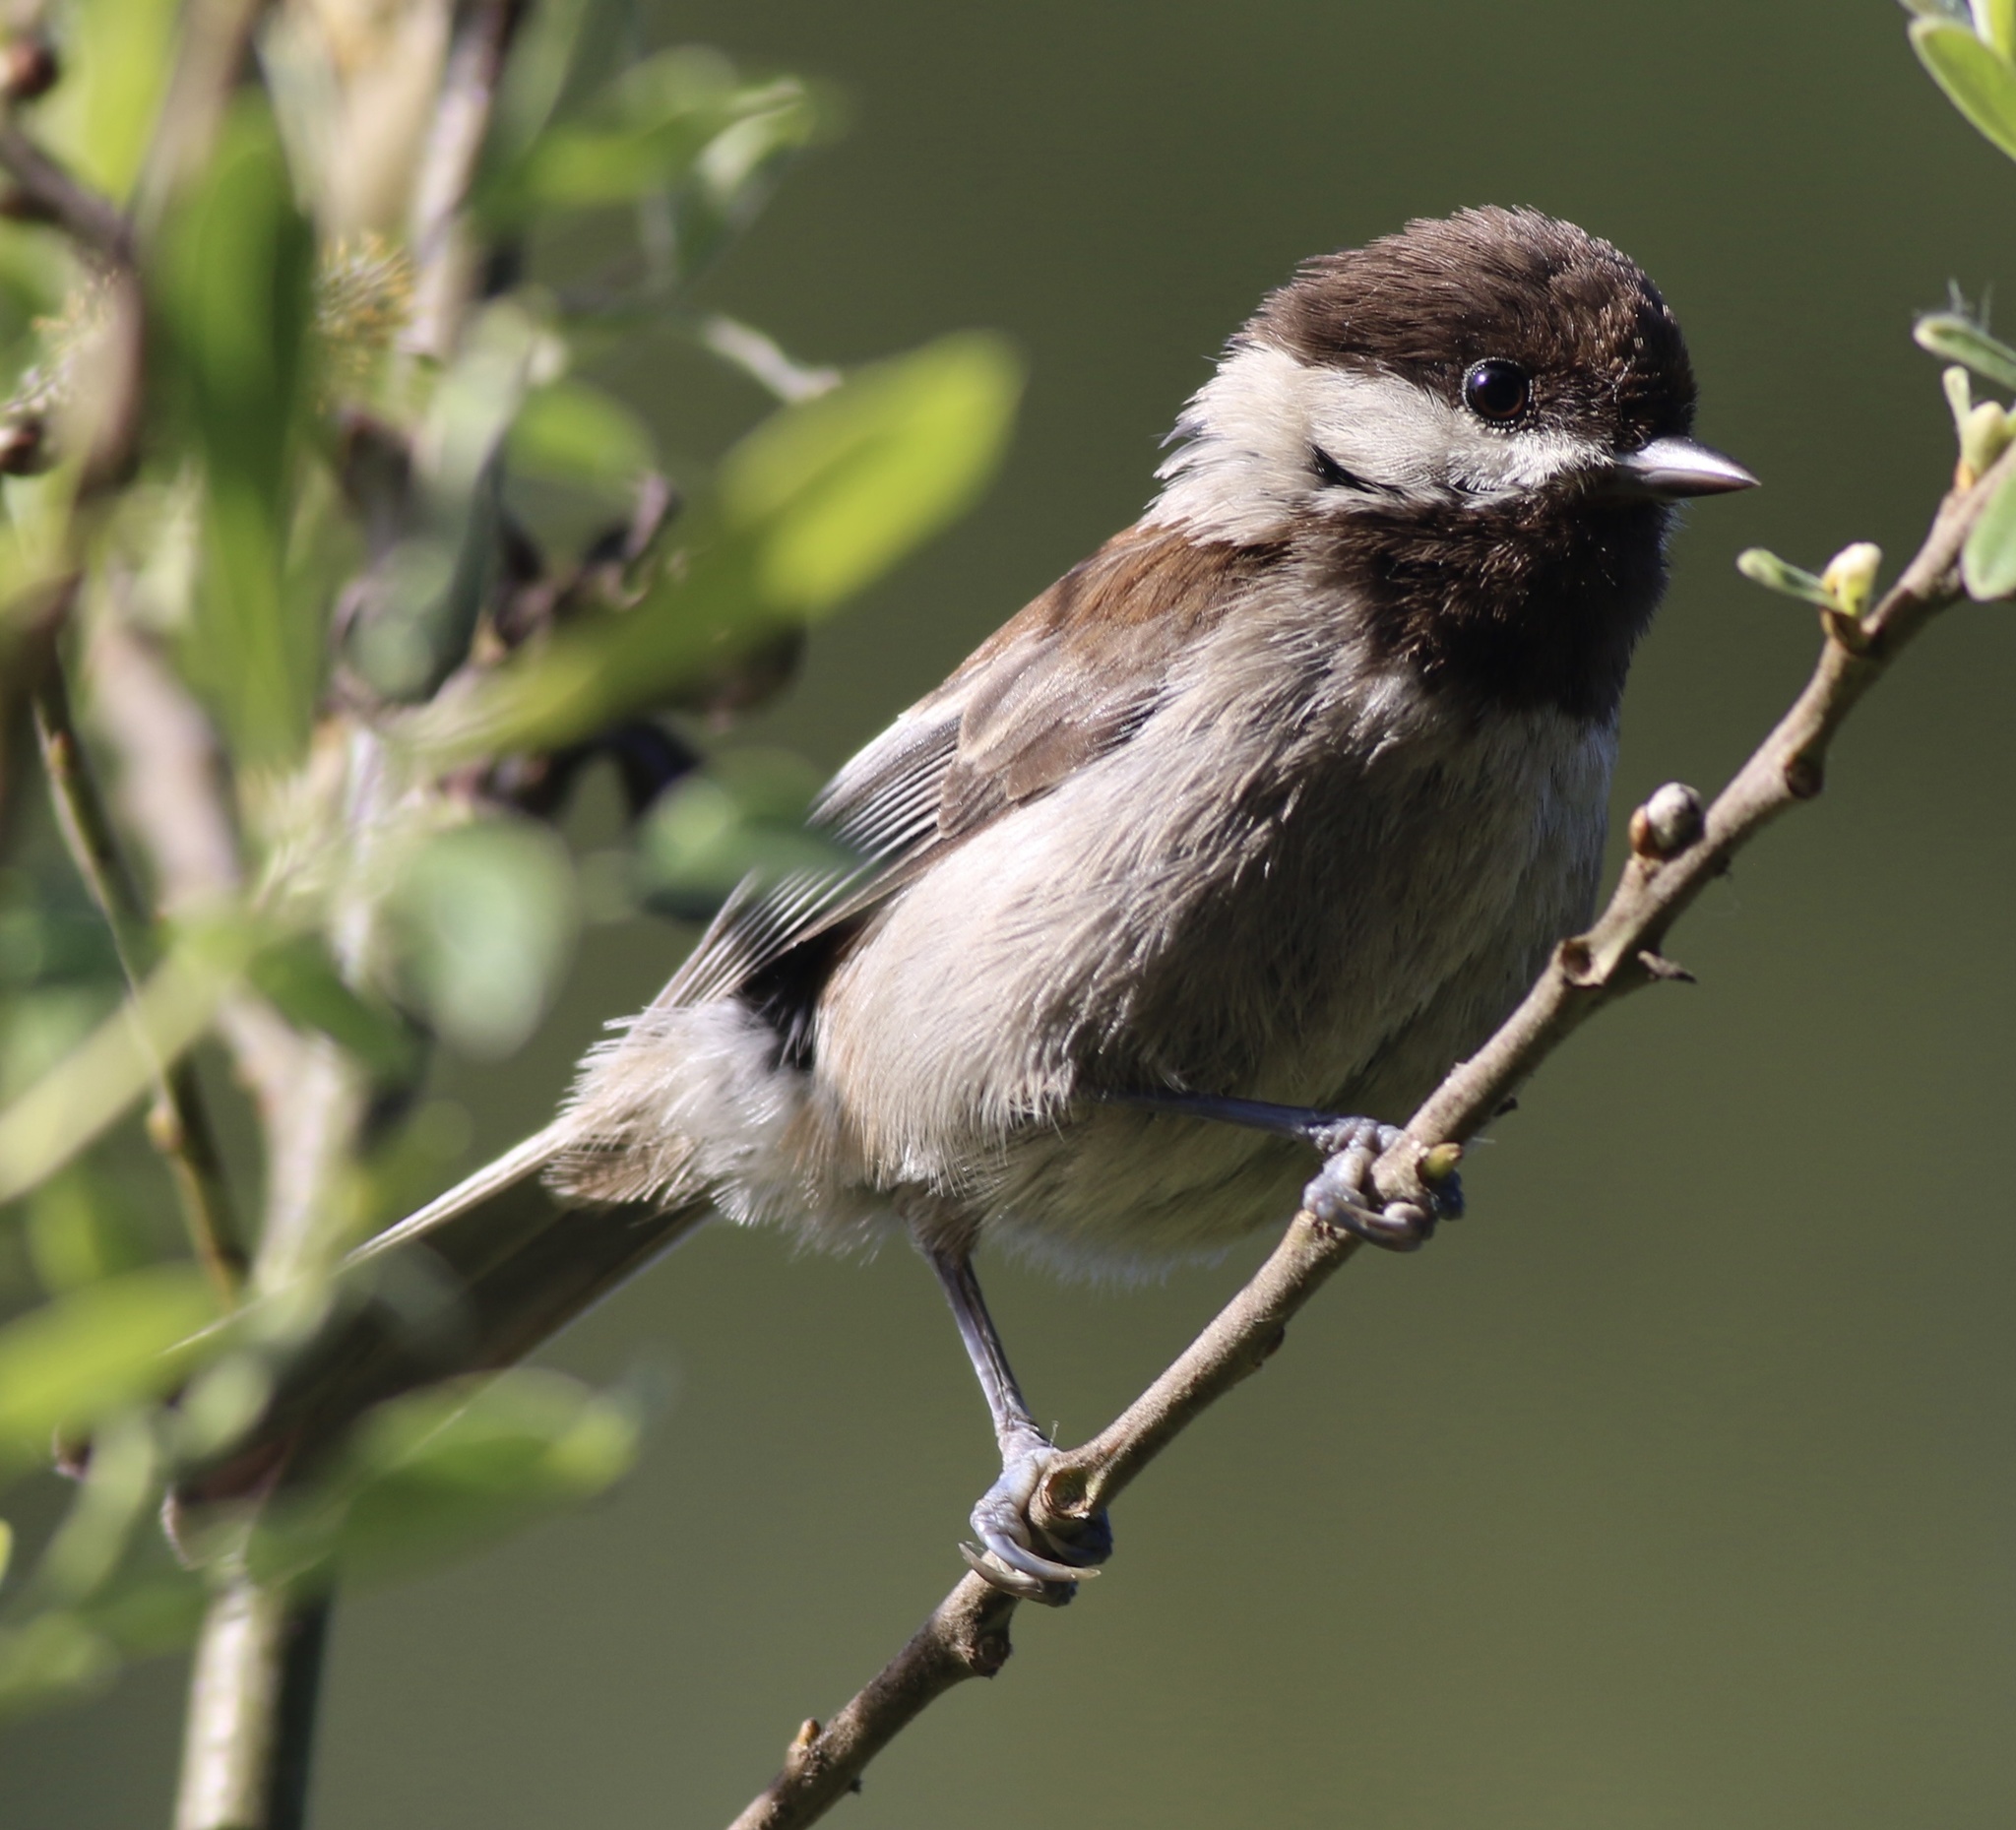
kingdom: Animalia
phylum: Chordata
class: Aves
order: Passeriformes
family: Paridae
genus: Poecile
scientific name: Poecile rufescens
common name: Chestnut-backed chickadee
